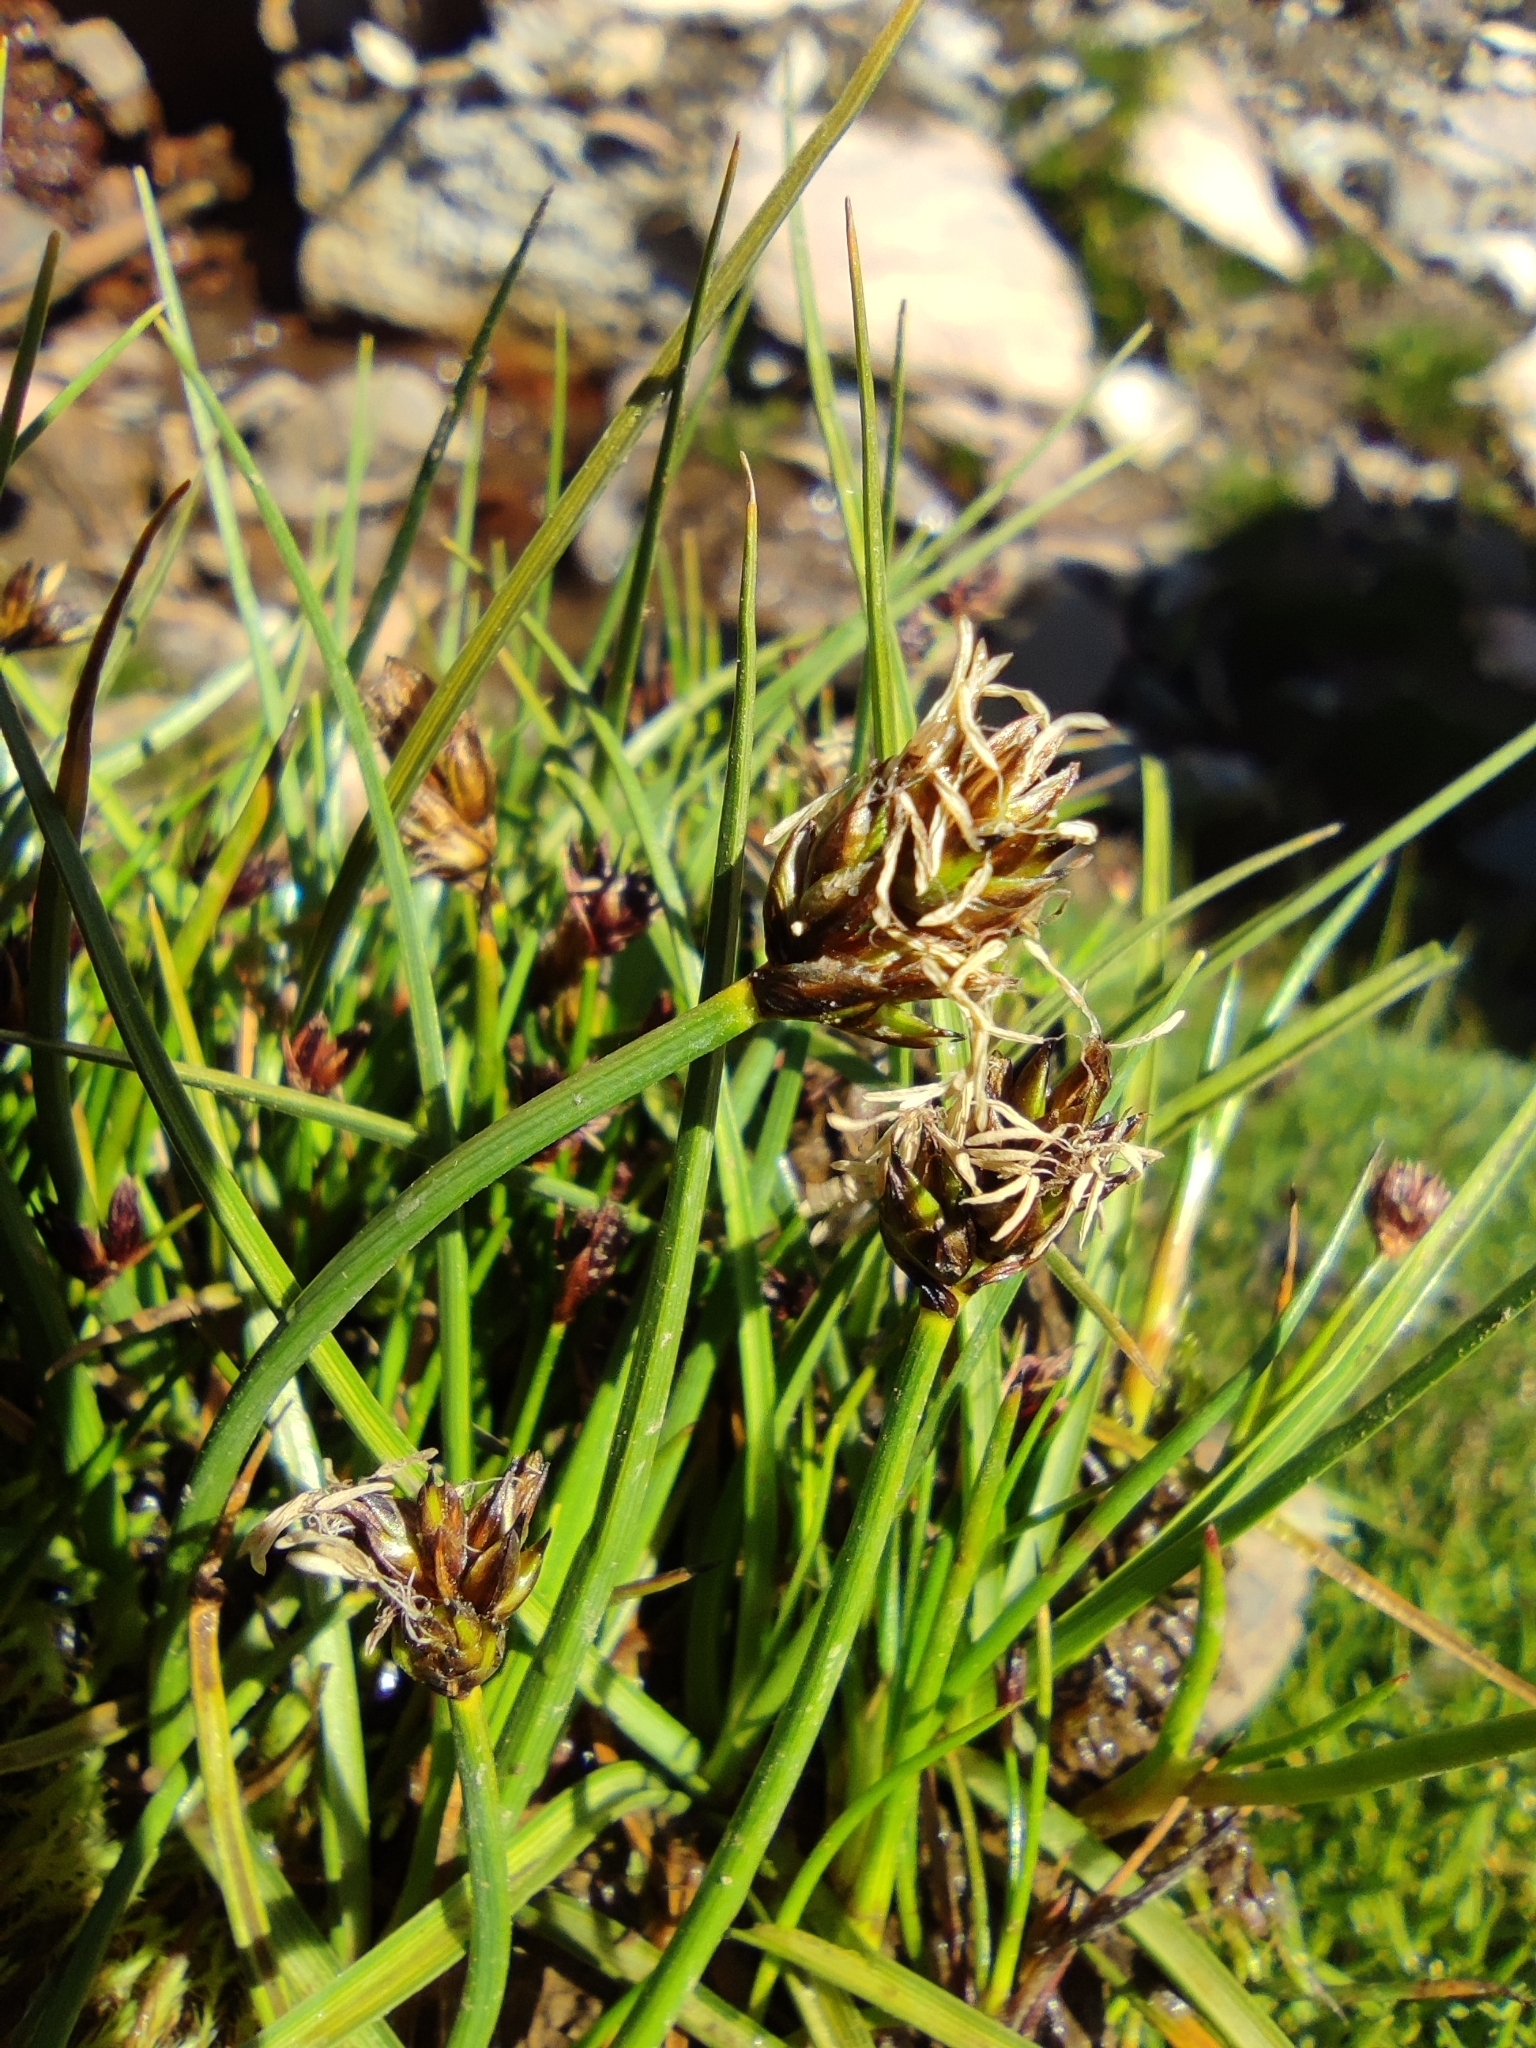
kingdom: Plantae
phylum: Tracheophyta
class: Liliopsida
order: Poales
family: Cyperaceae
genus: Carex
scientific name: Carex melanocystis
